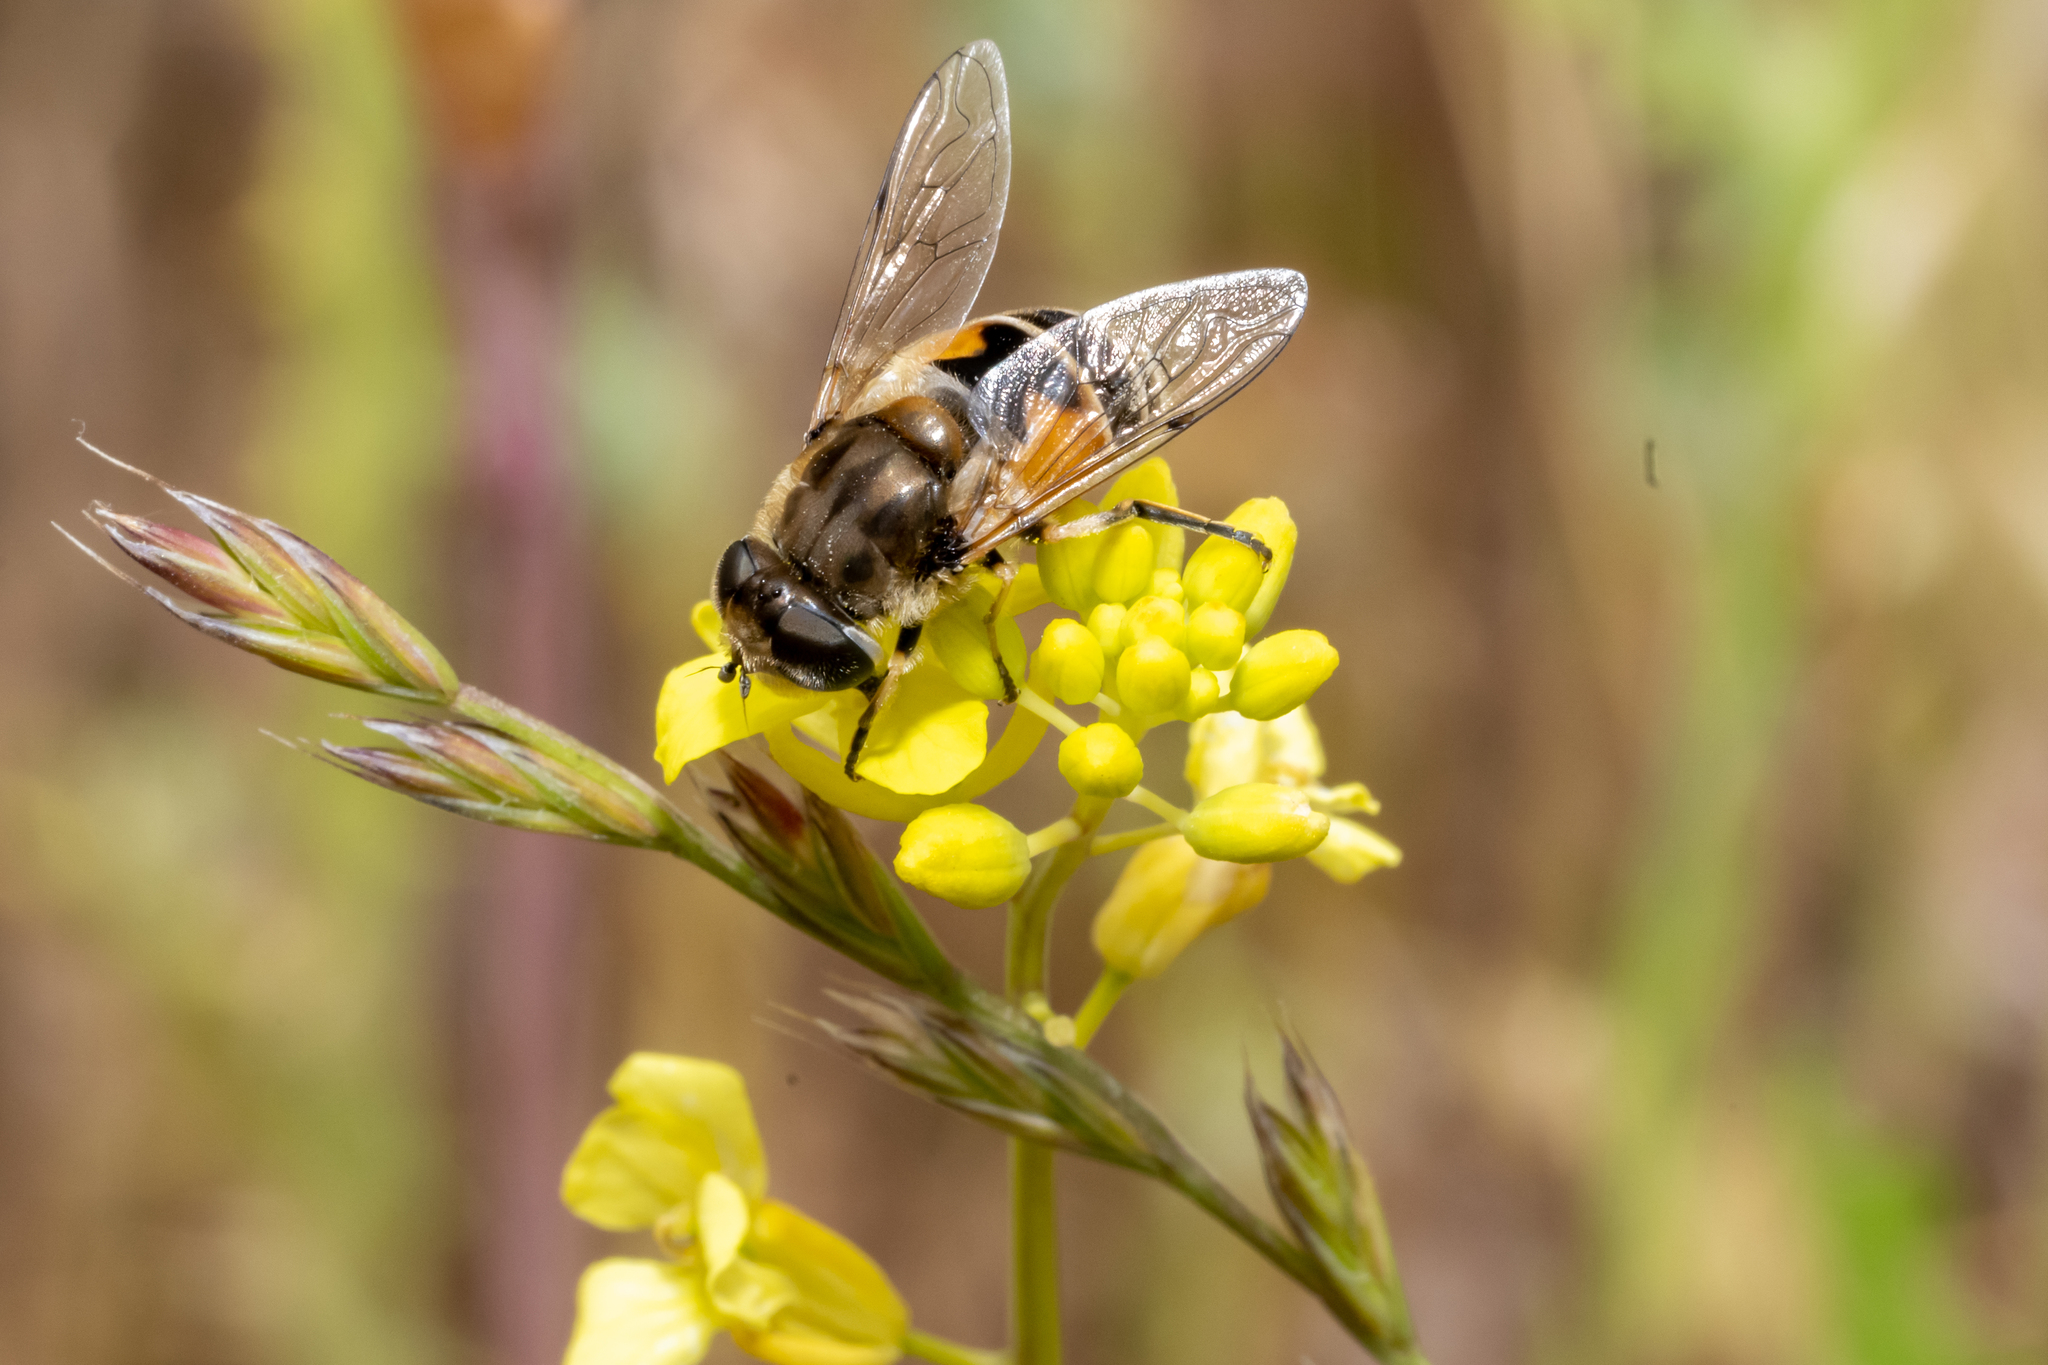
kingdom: Animalia
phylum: Arthropoda
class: Insecta
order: Diptera
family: Syrphidae
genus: Eristalis
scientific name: Eristalis arbustorum
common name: Hover fly
